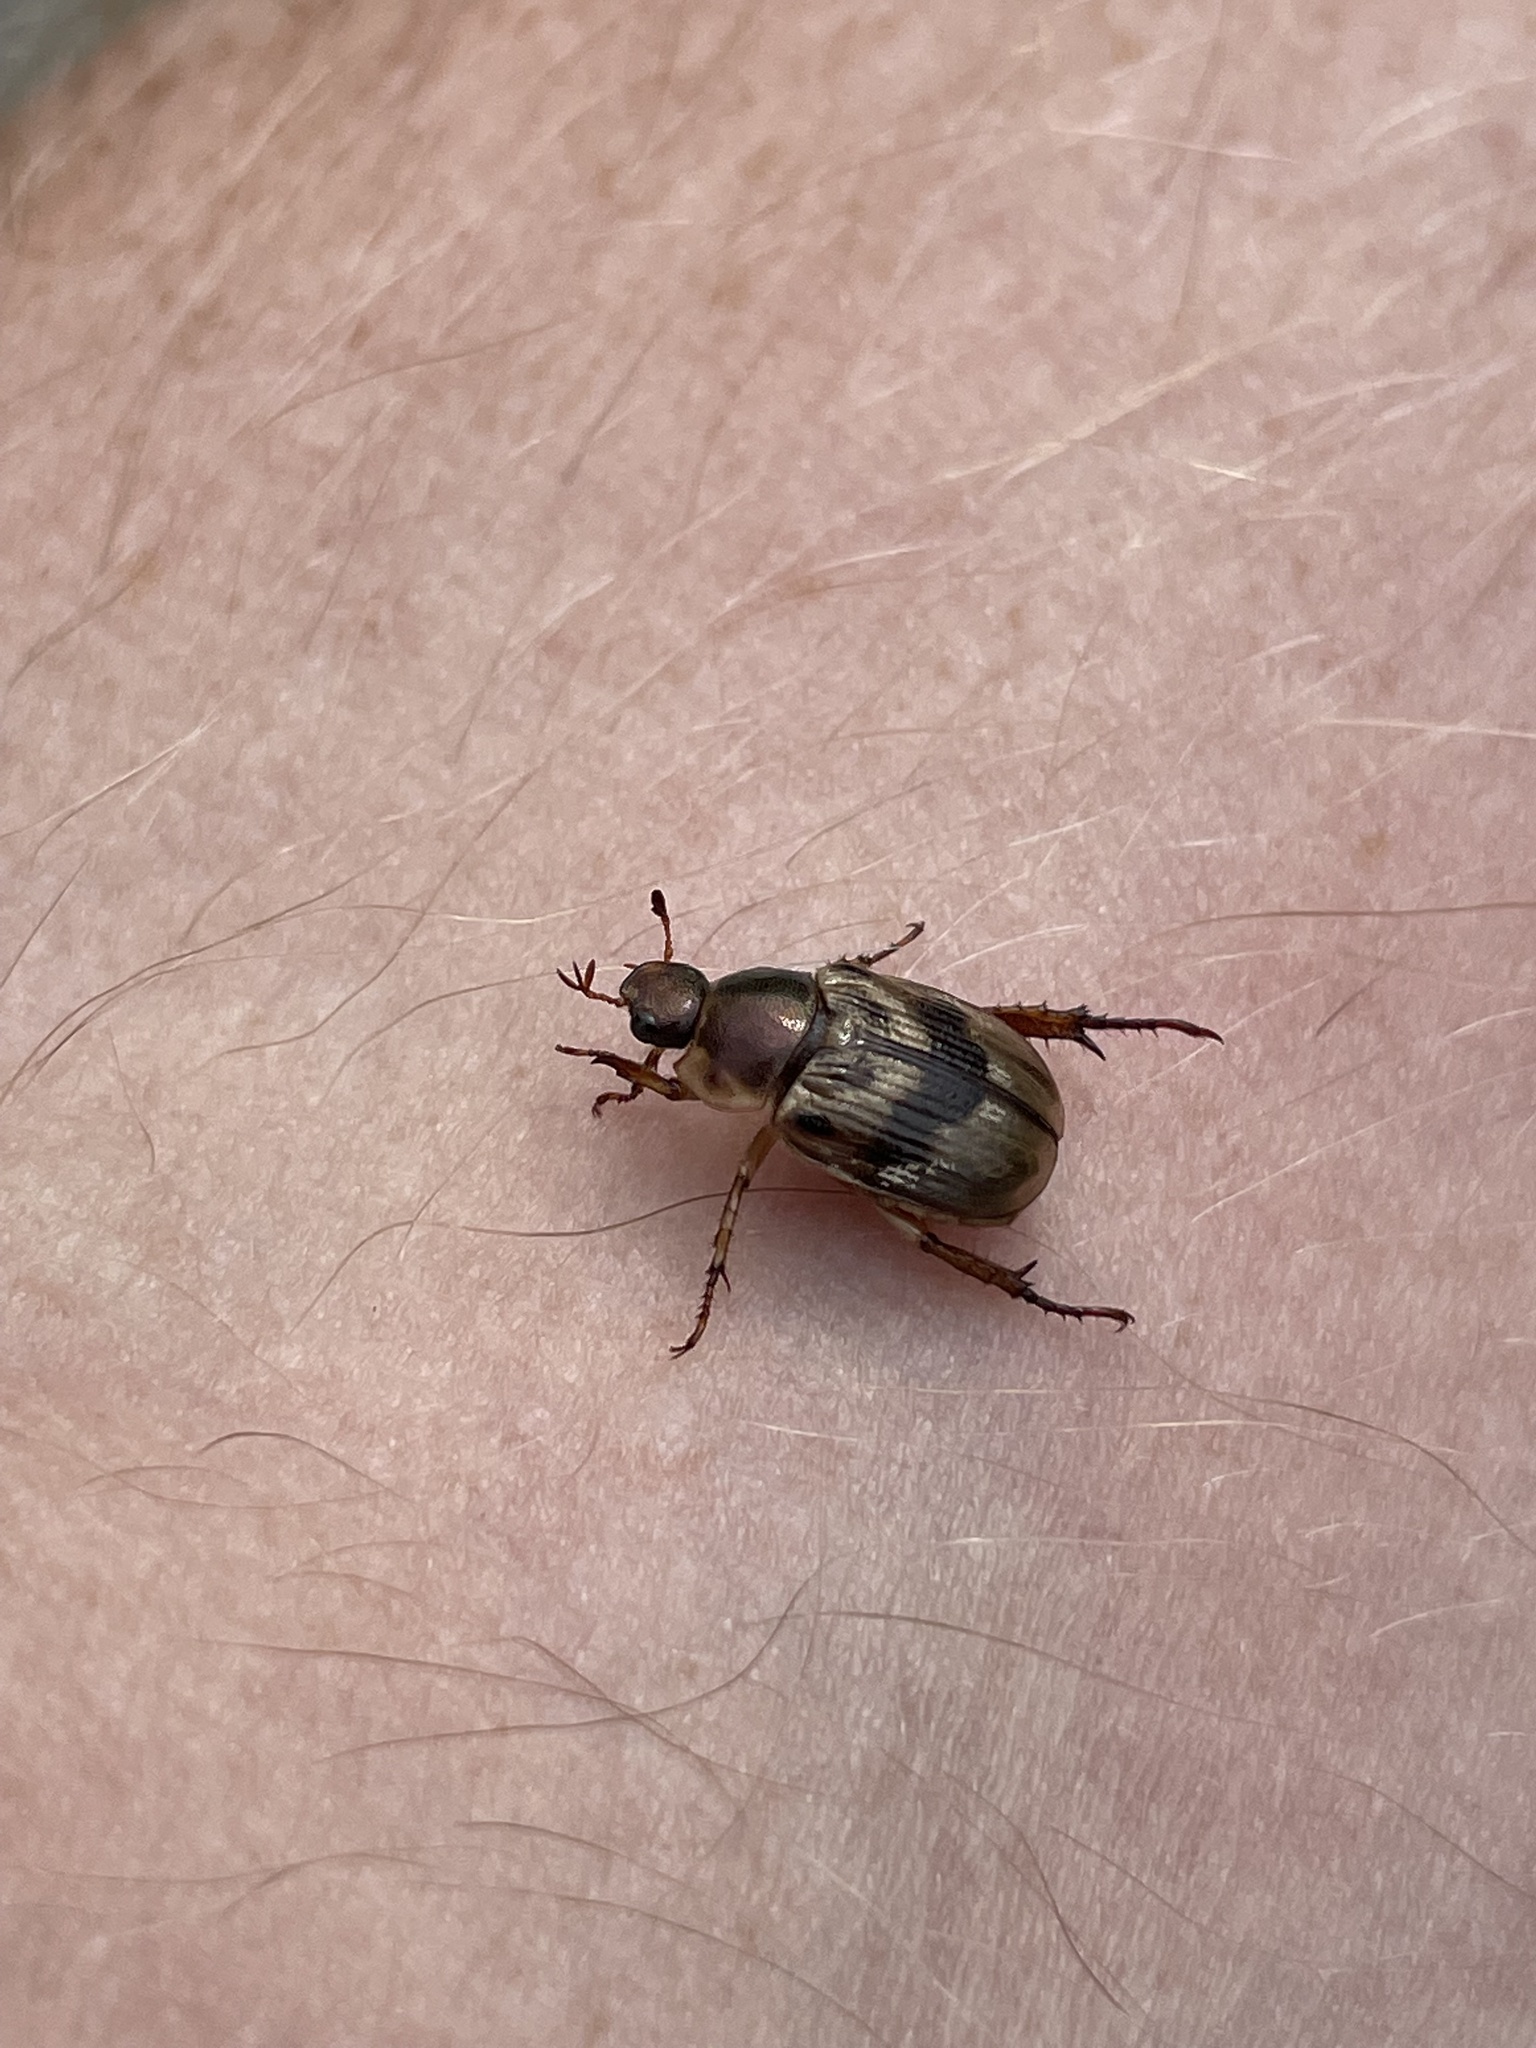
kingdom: Animalia
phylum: Arthropoda
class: Insecta
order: Coleoptera
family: Scarabaeidae
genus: Exomala
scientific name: Exomala orientalis
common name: Oriental beetle
